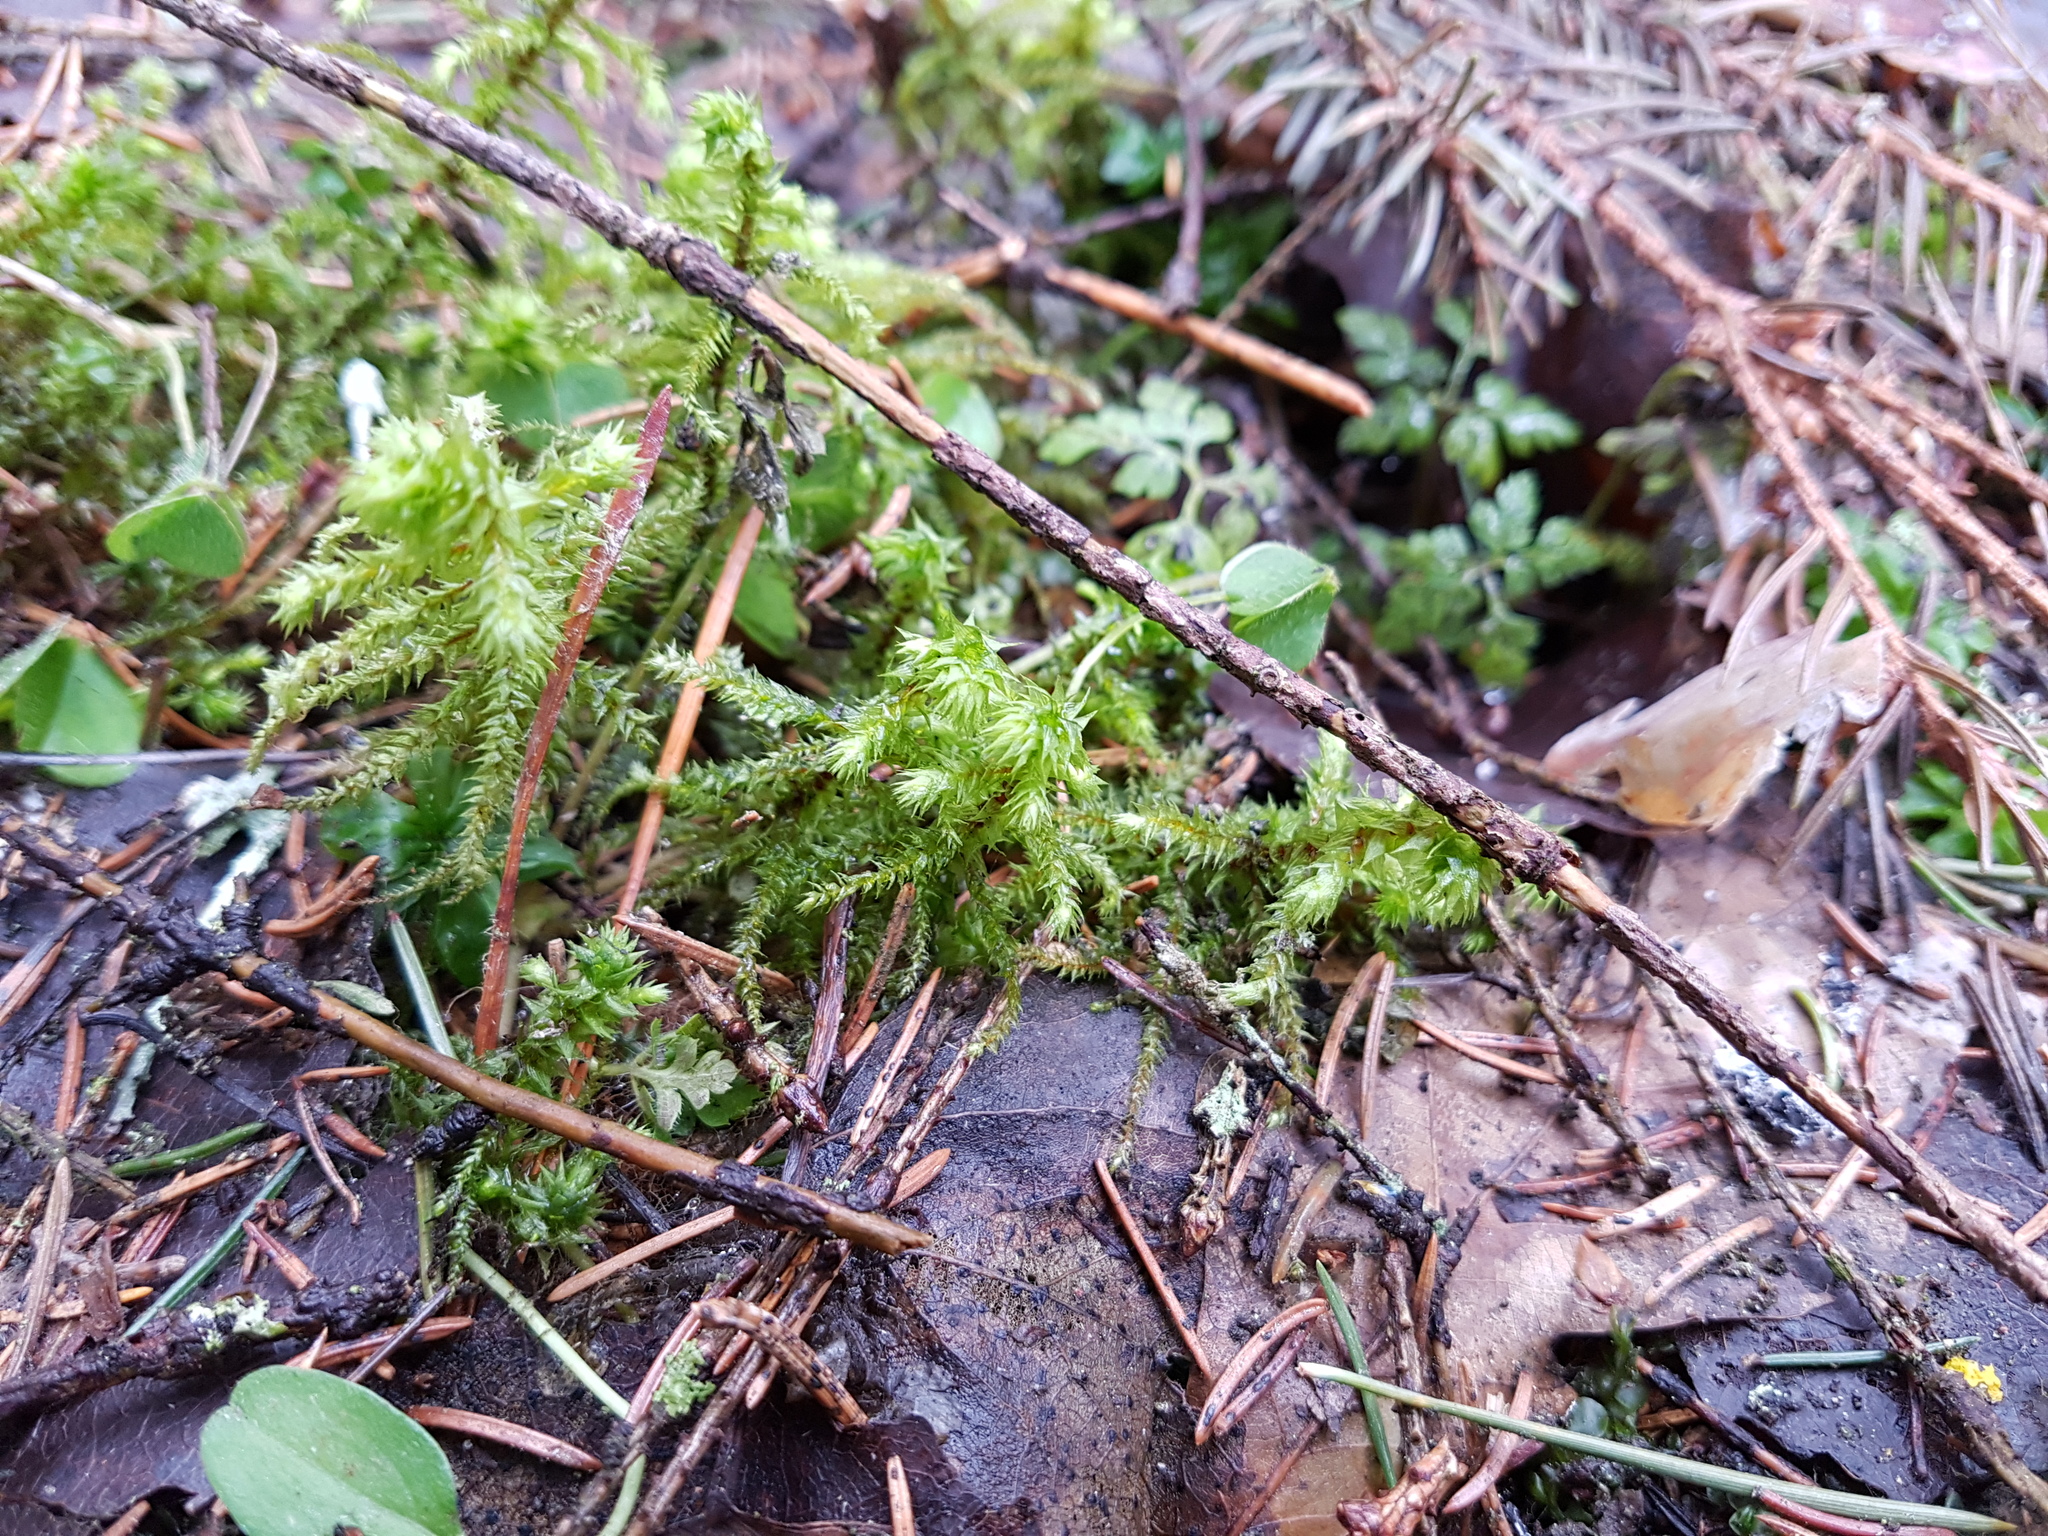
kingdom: Plantae
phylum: Bryophyta
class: Bryopsida
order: Hypnales
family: Hylocomiaceae
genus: Hylocomiadelphus
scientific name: Hylocomiadelphus triquetrus
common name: Rough goose neck moss
